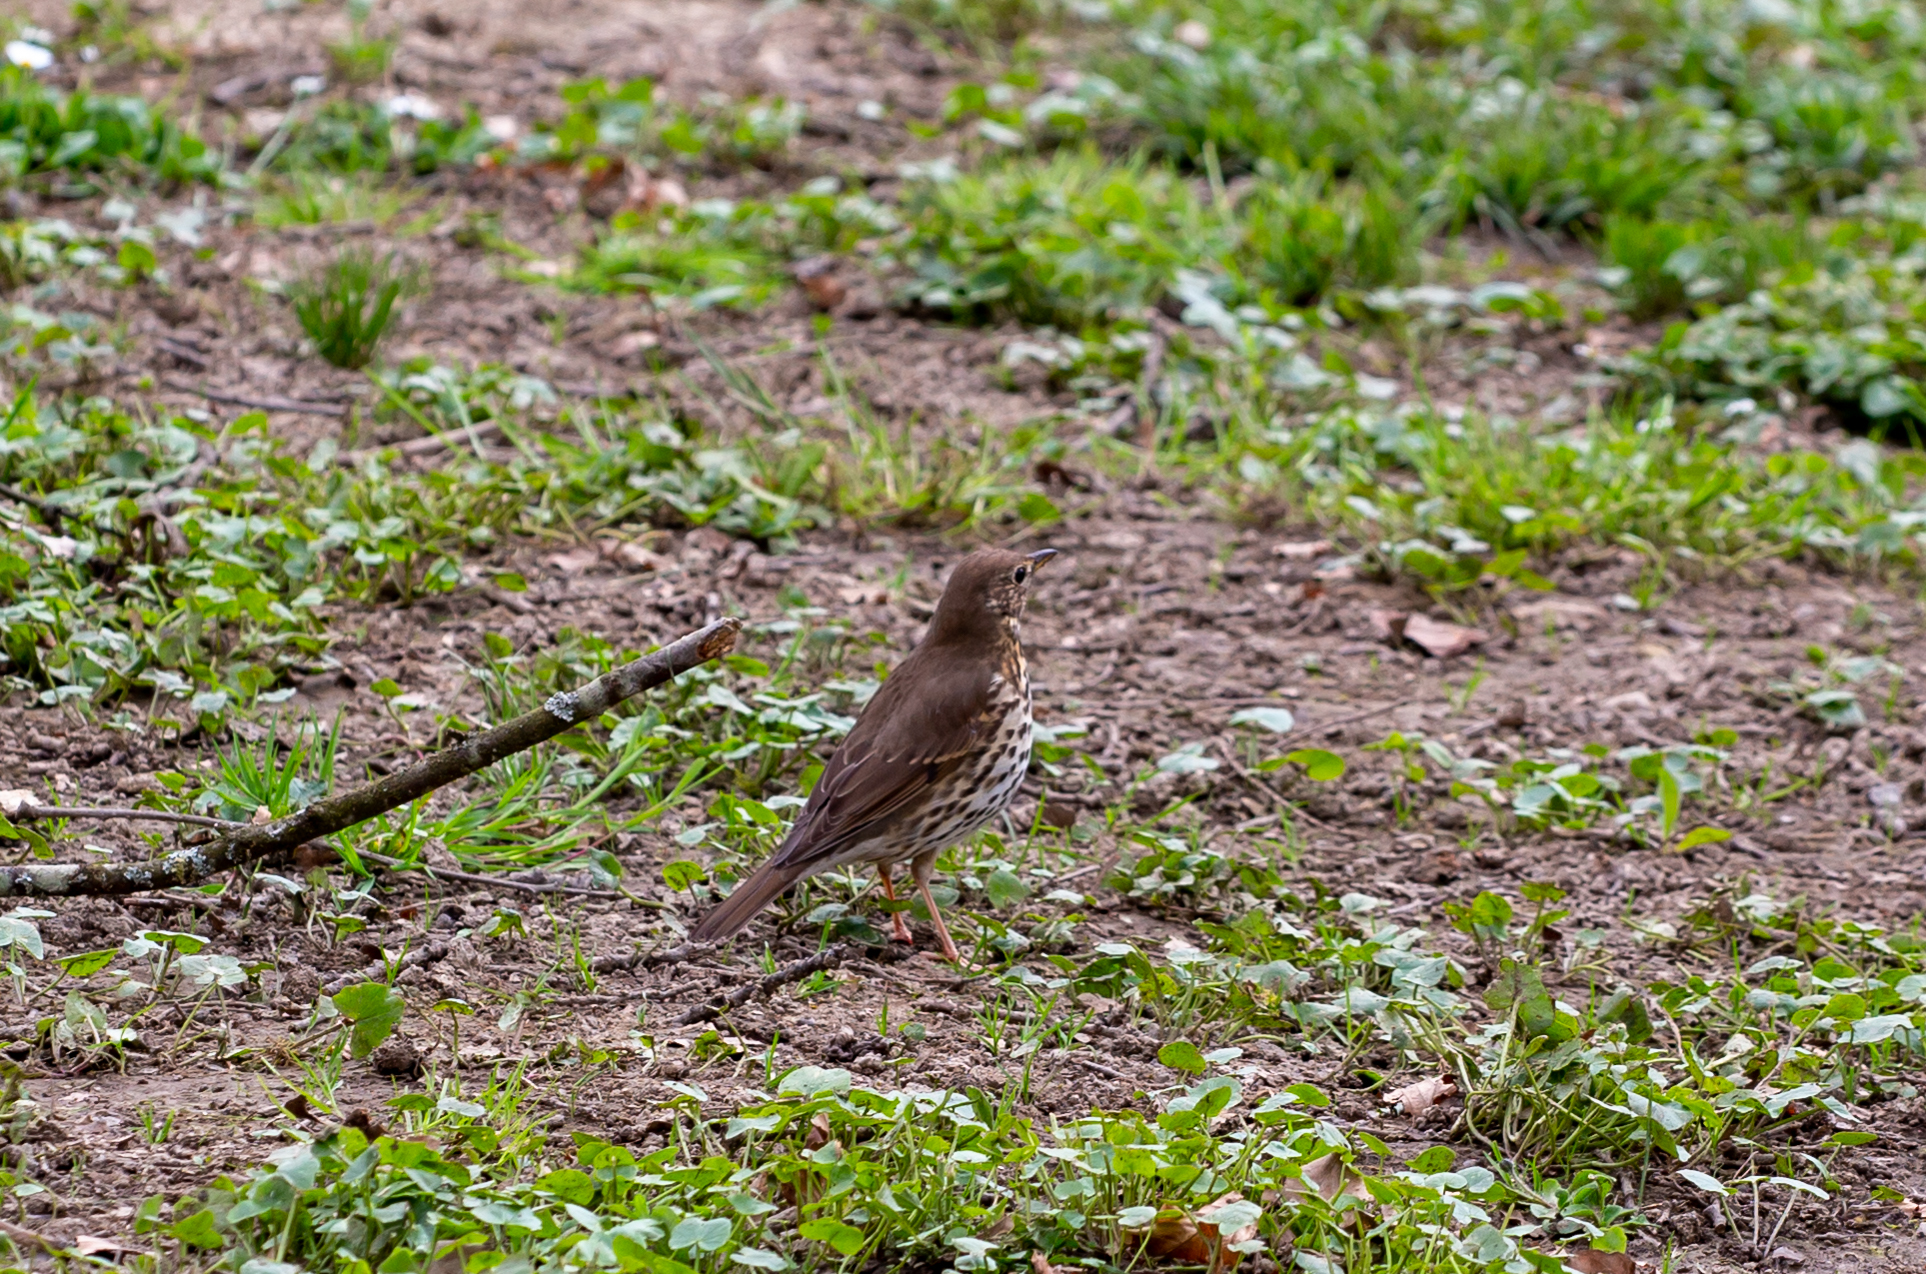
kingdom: Animalia
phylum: Chordata
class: Aves
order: Passeriformes
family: Turdidae
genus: Turdus
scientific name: Turdus philomelos
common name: Song thrush
